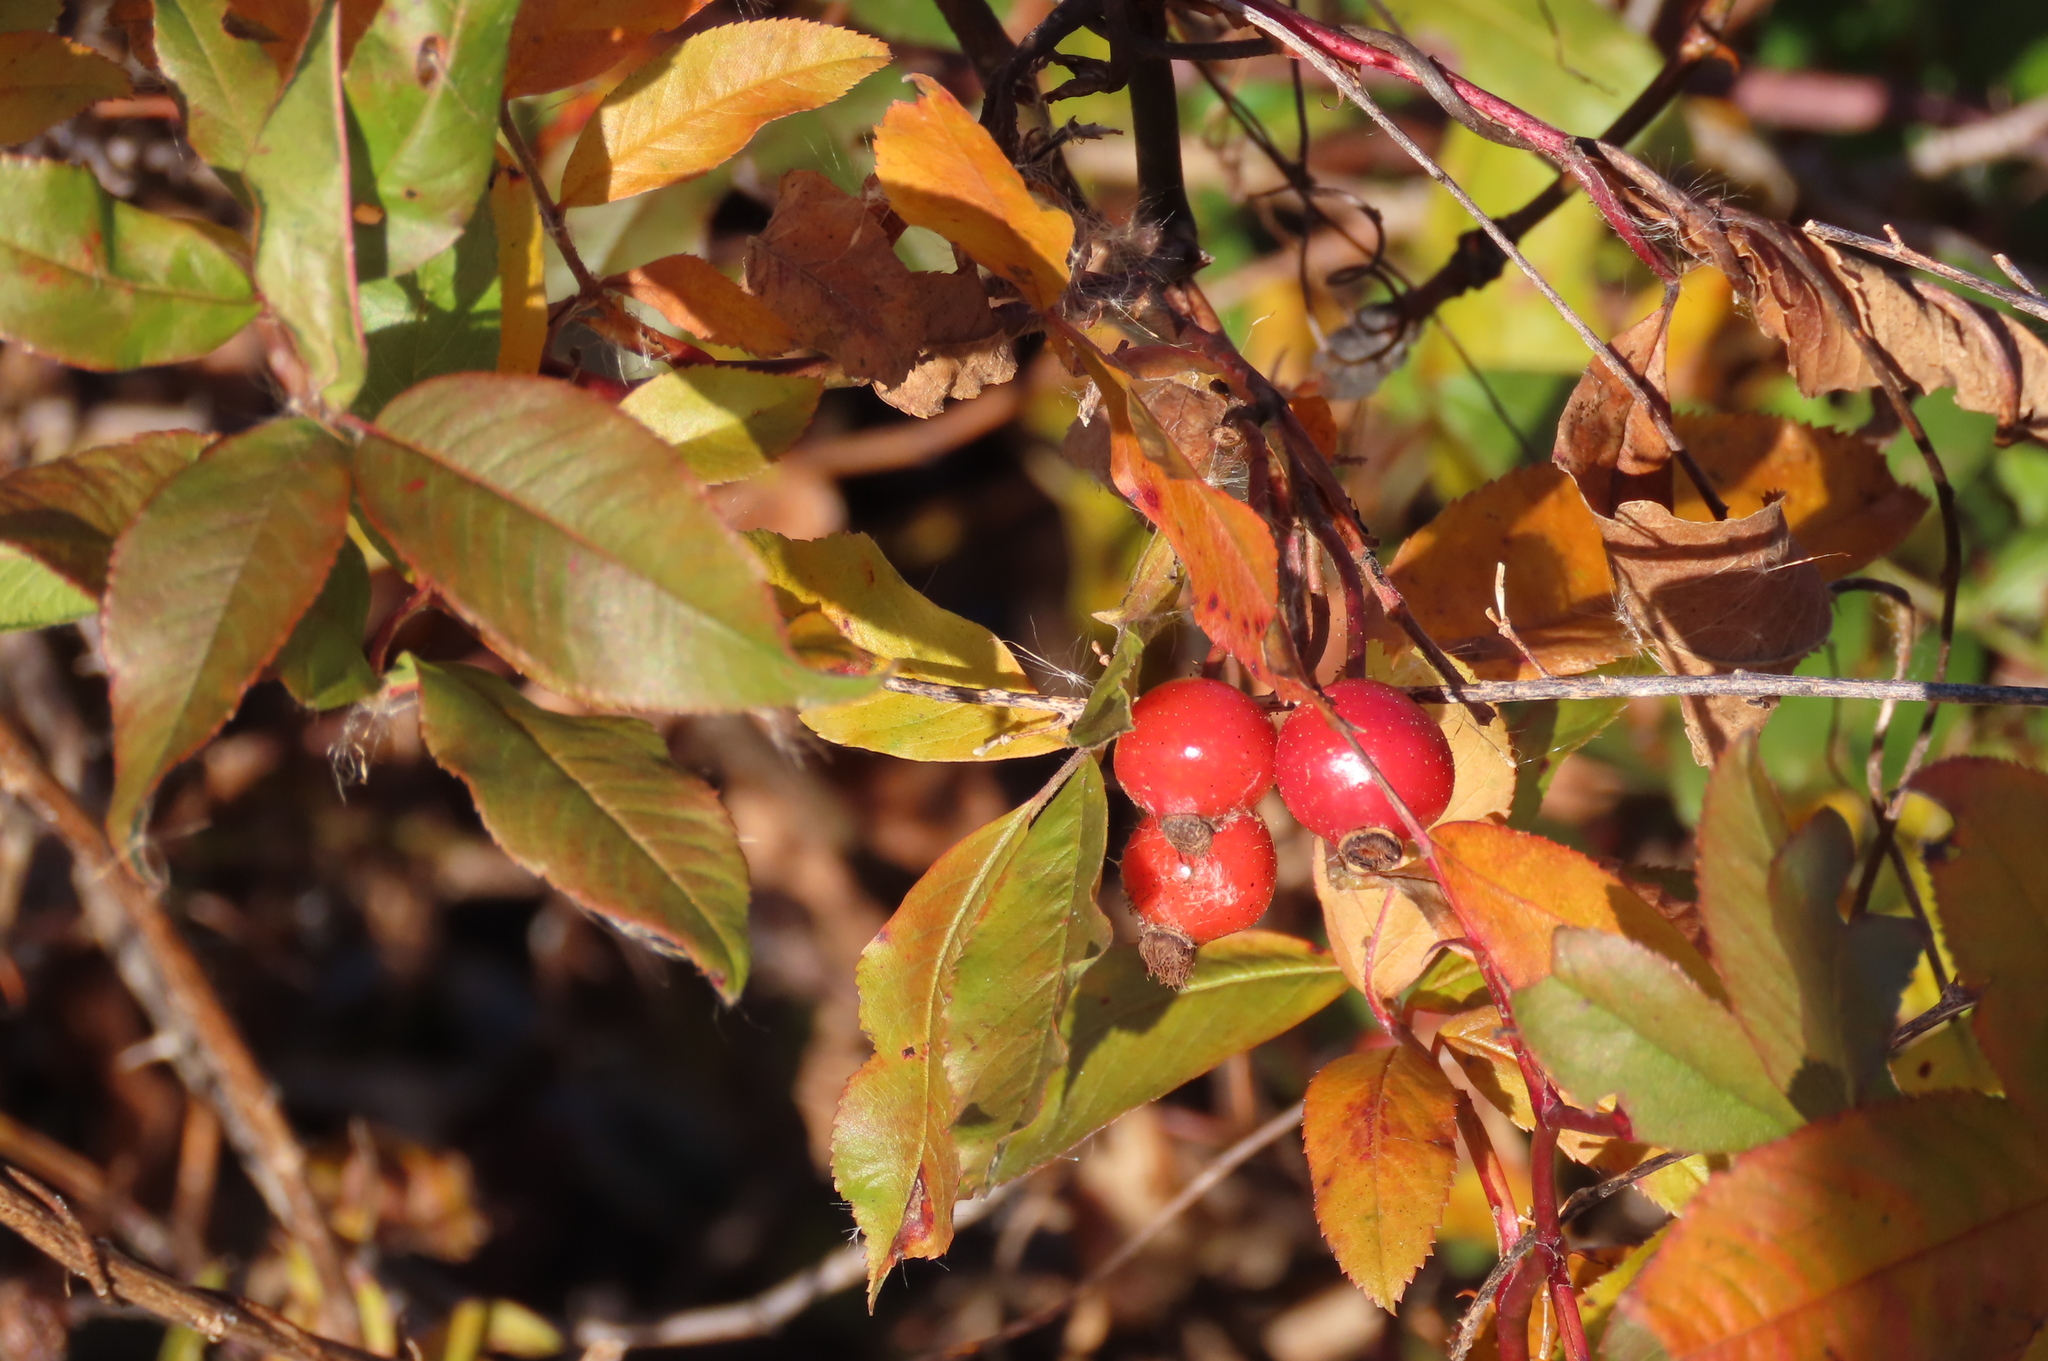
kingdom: Plantae
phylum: Tracheophyta
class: Magnoliopsida
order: Rosales
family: Rosaceae
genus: Rosa
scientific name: Rosa palustris
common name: Swamp rose
